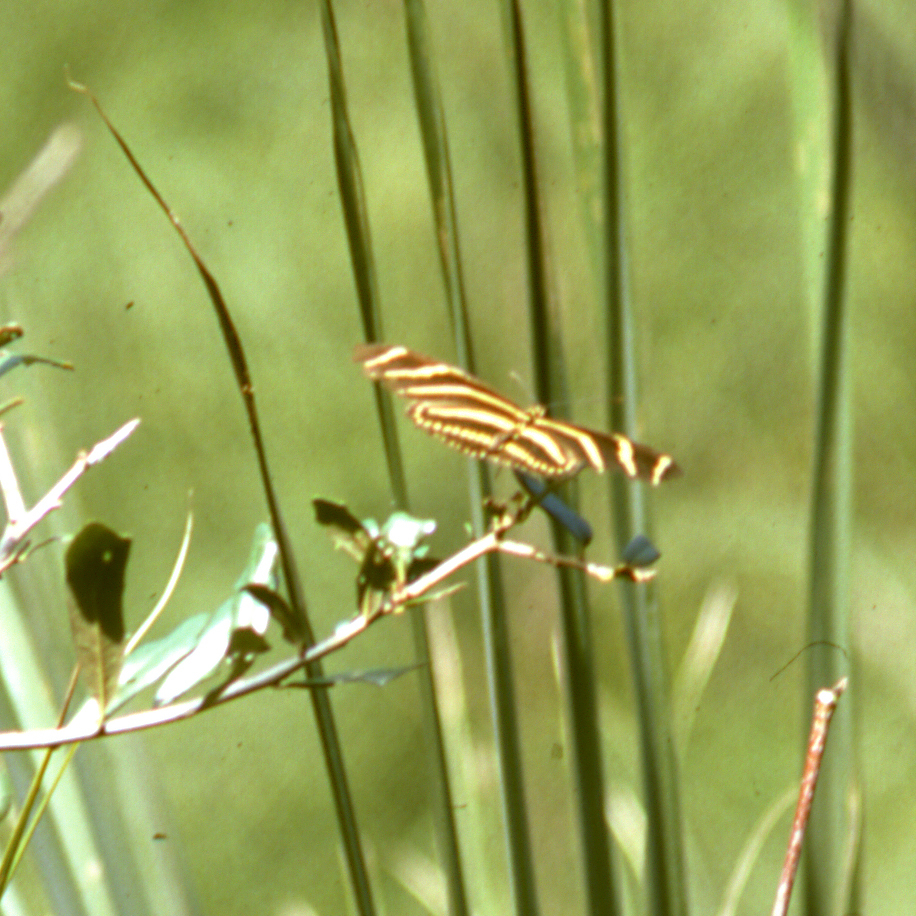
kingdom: Animalia
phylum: Arthropoda
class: Insecta
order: Lepidoptera
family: Nymphalidae
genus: Heliconius
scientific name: Heliconius charithonia
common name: Zebra long wing
